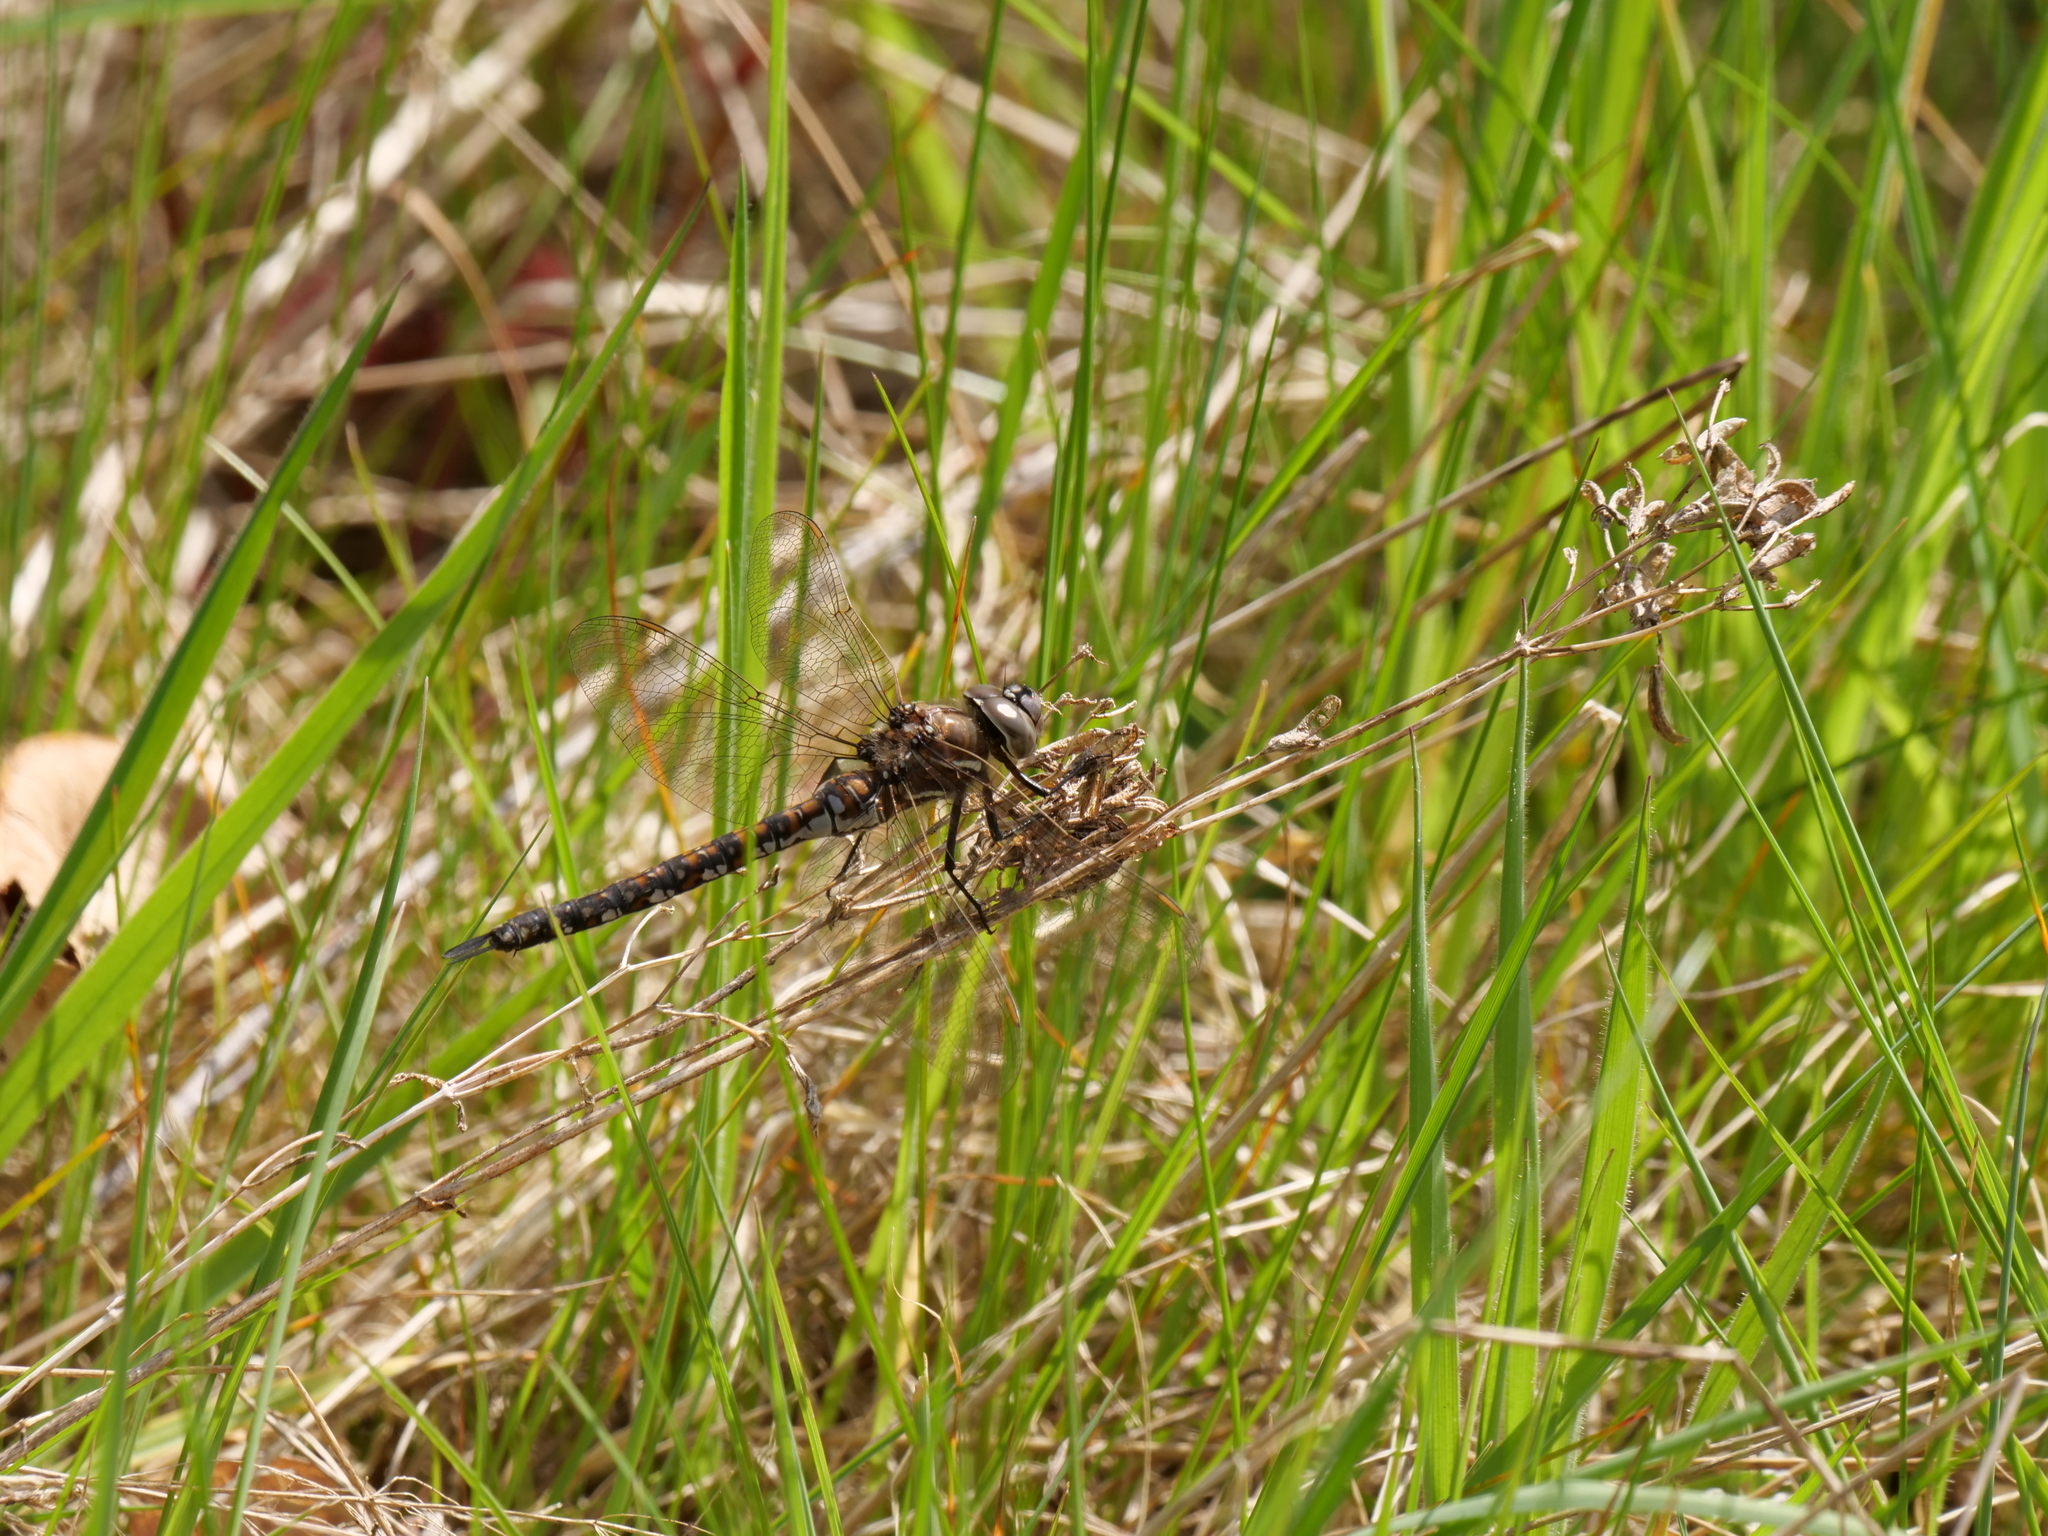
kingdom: Animalia
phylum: Arthropoda
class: Insecta
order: Odonata
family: Aeshnidae
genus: Rhionaeschna
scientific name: Rhionaeschna californica
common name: California darner
